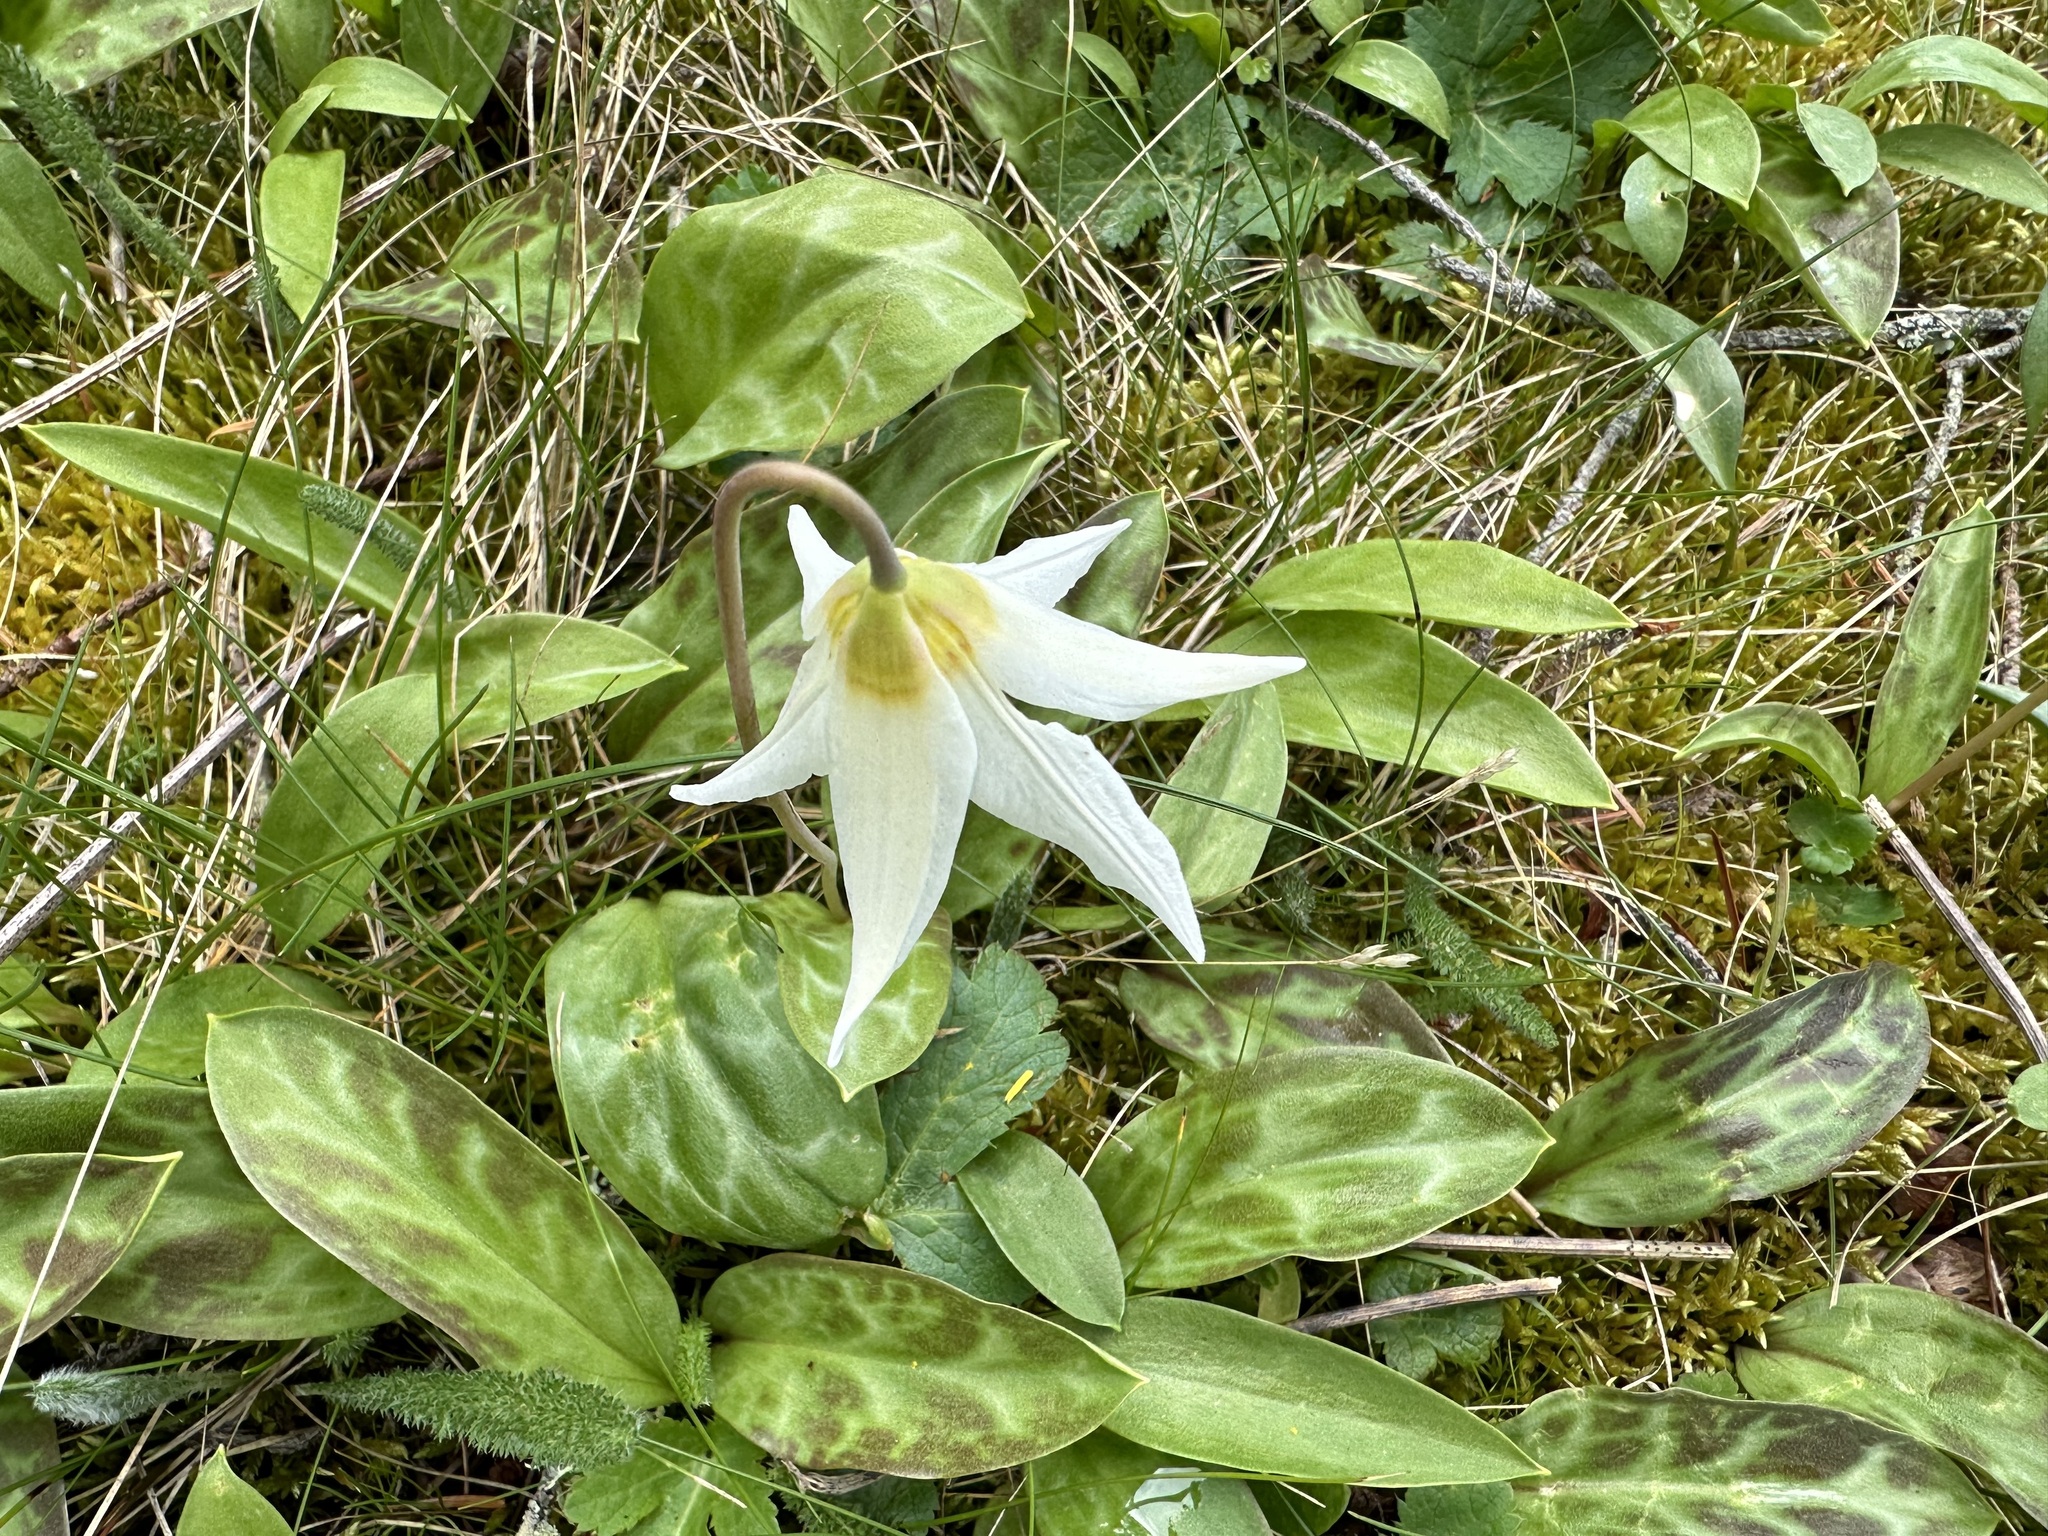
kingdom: Plantae
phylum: Tracheophyta
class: Liliopsida
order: Liliales
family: Liliaceae
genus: Erythronium
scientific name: Erythronium oregonum
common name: Giant adder's-tongue
